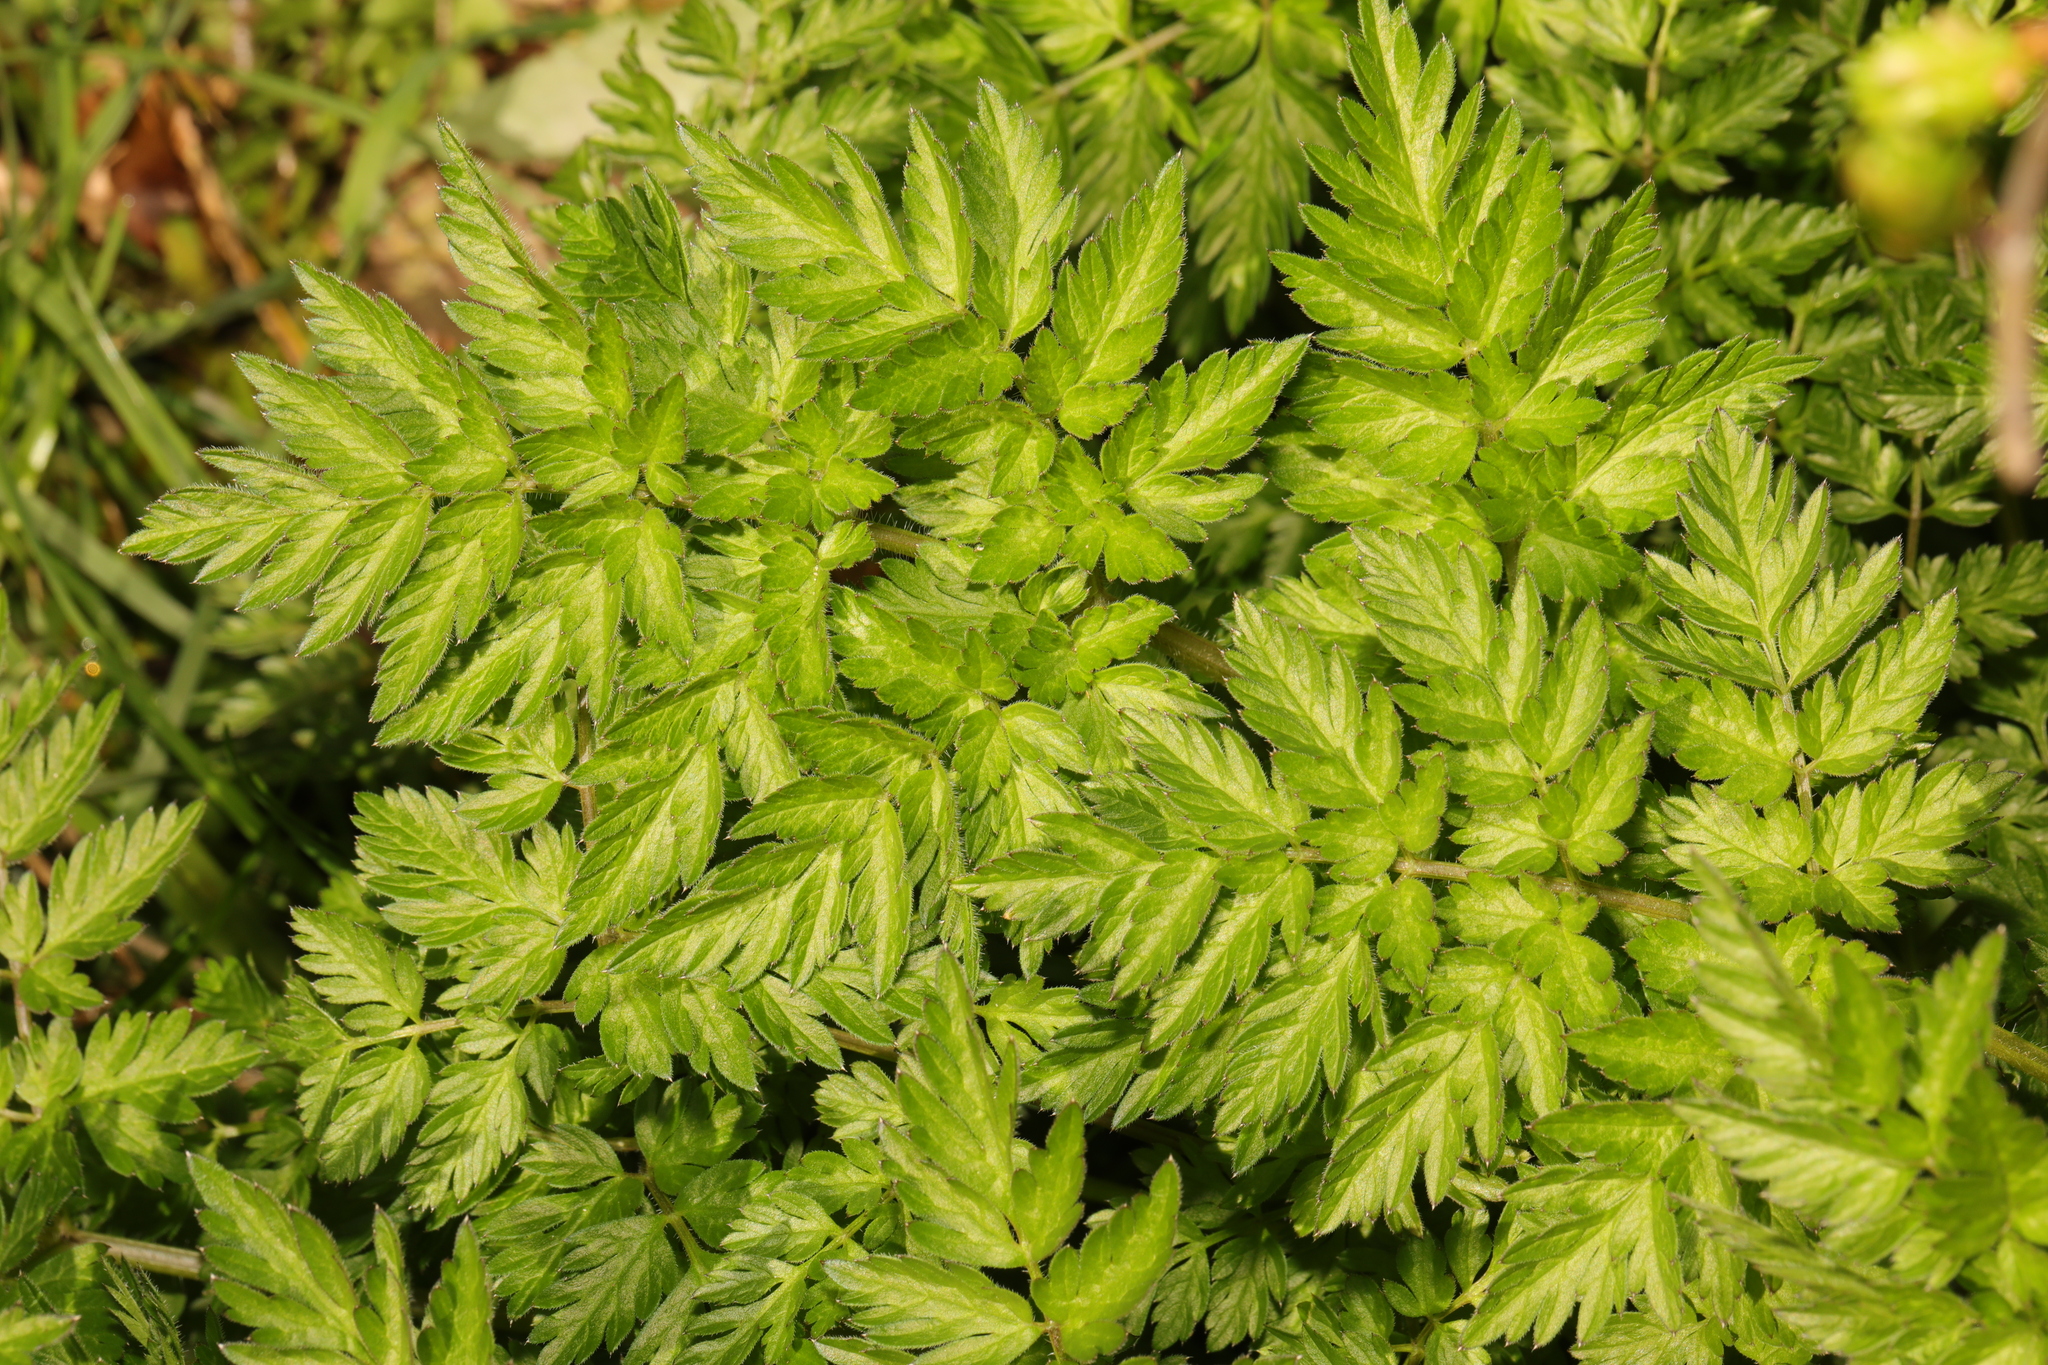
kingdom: Plantae
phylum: Tracheophyta
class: Magnoliopsida
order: Apiales
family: Apiaceae
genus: Anthriscus
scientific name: Anthriscus sylvestris
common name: Cow parsley
